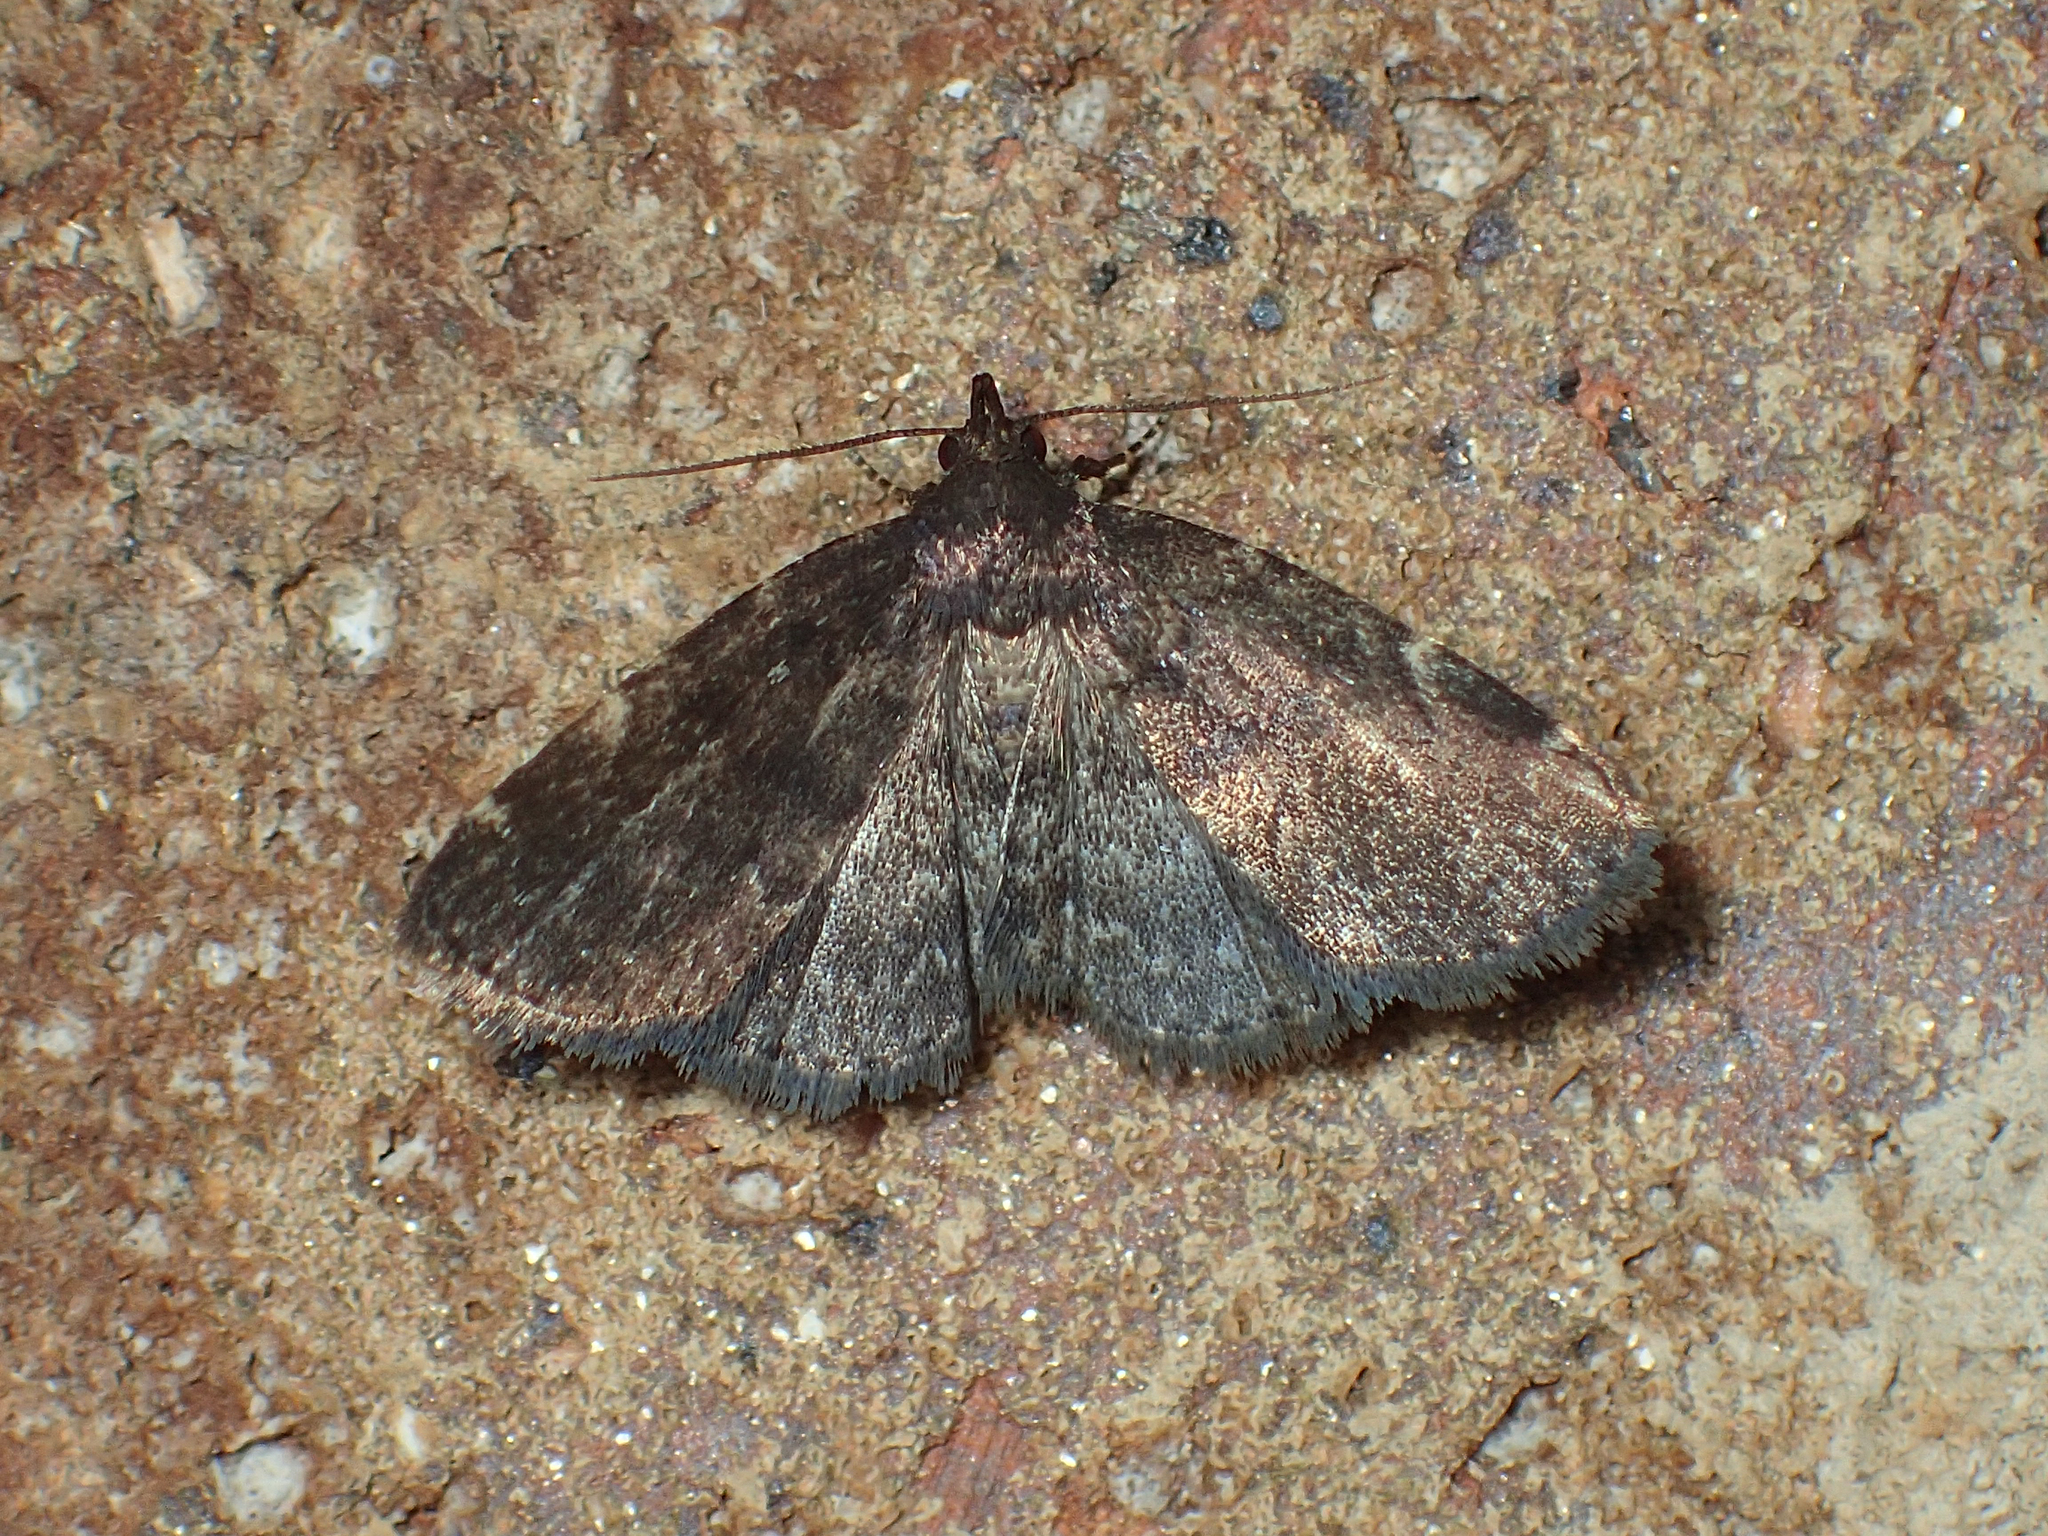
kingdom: Animalia
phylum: Arthropoda
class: Insecta
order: Lepidoptera
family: Erebidae
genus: Idia
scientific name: Idia julia
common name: Julia's idia moth
